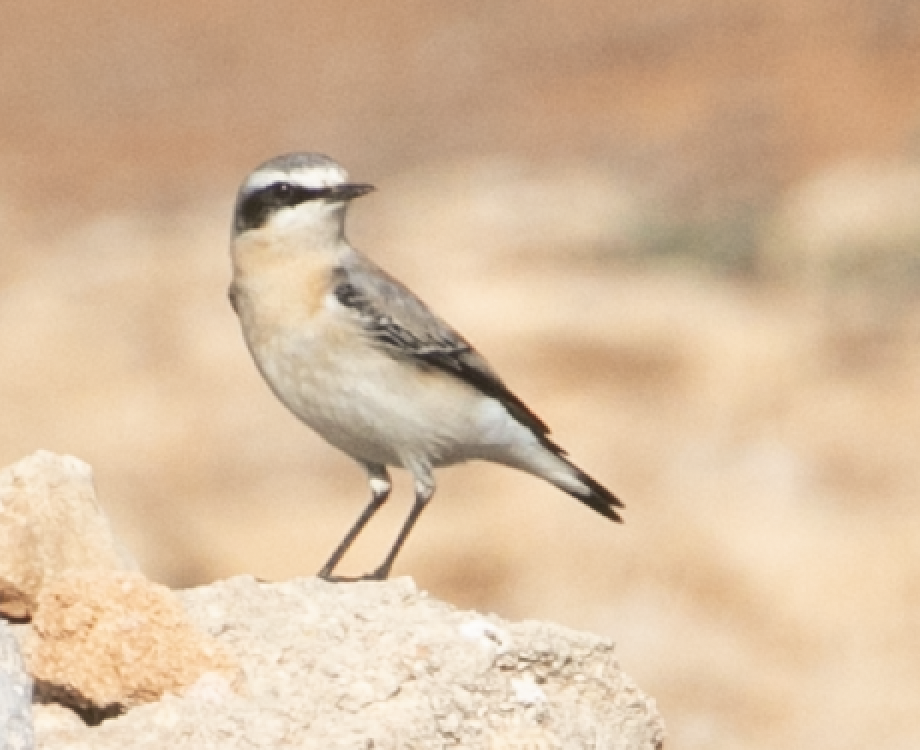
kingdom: Animalia
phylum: Chordata
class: Aves
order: Passeriformes
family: Muscicapidae
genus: Oenanthe
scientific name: Oenanthe oenanthe
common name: Northern wheatear
